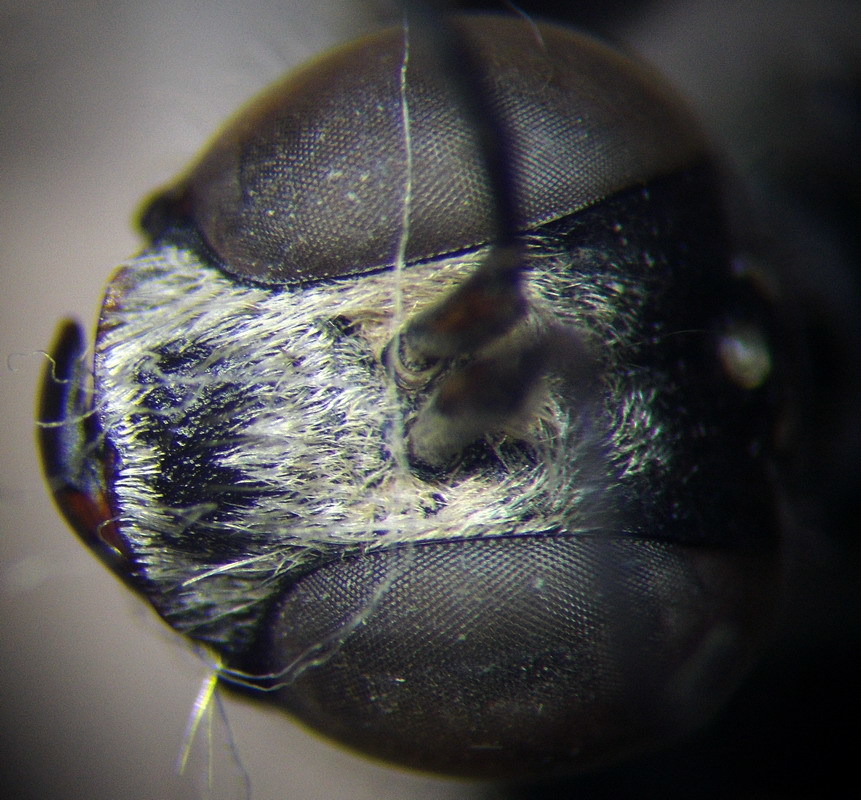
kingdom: Animalia
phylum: Arthropoda
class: Insecta
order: Hymenoptera
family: Sphecidae
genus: Prionyx
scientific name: Prionyx kirbii
